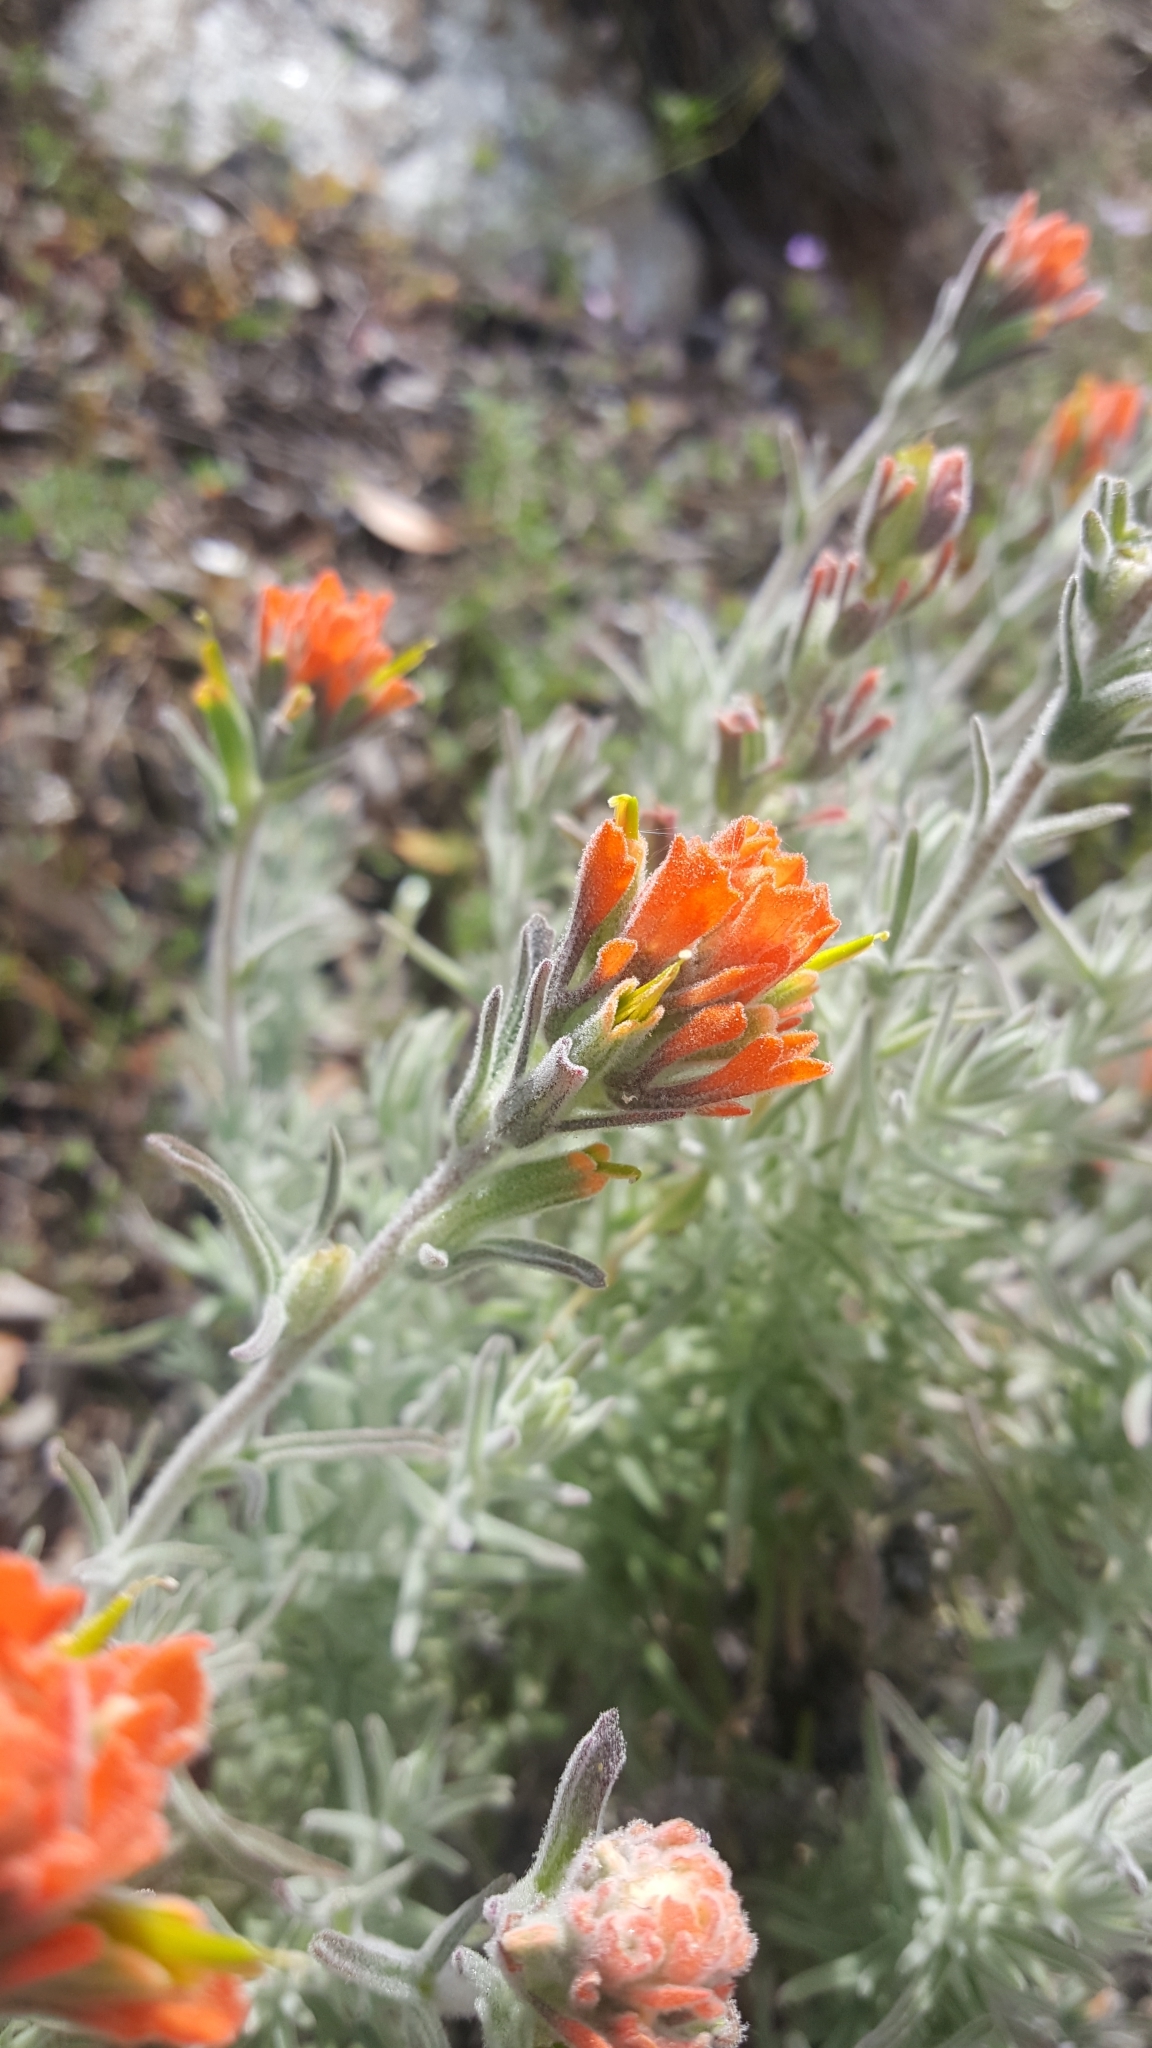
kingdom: Plantae
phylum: Tracheophyta
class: Magnoliopsida
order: Lamiales
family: Orobanchaceae
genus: Castilleja
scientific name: Castilleja foliolosa
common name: Woolly indian paintbrush
